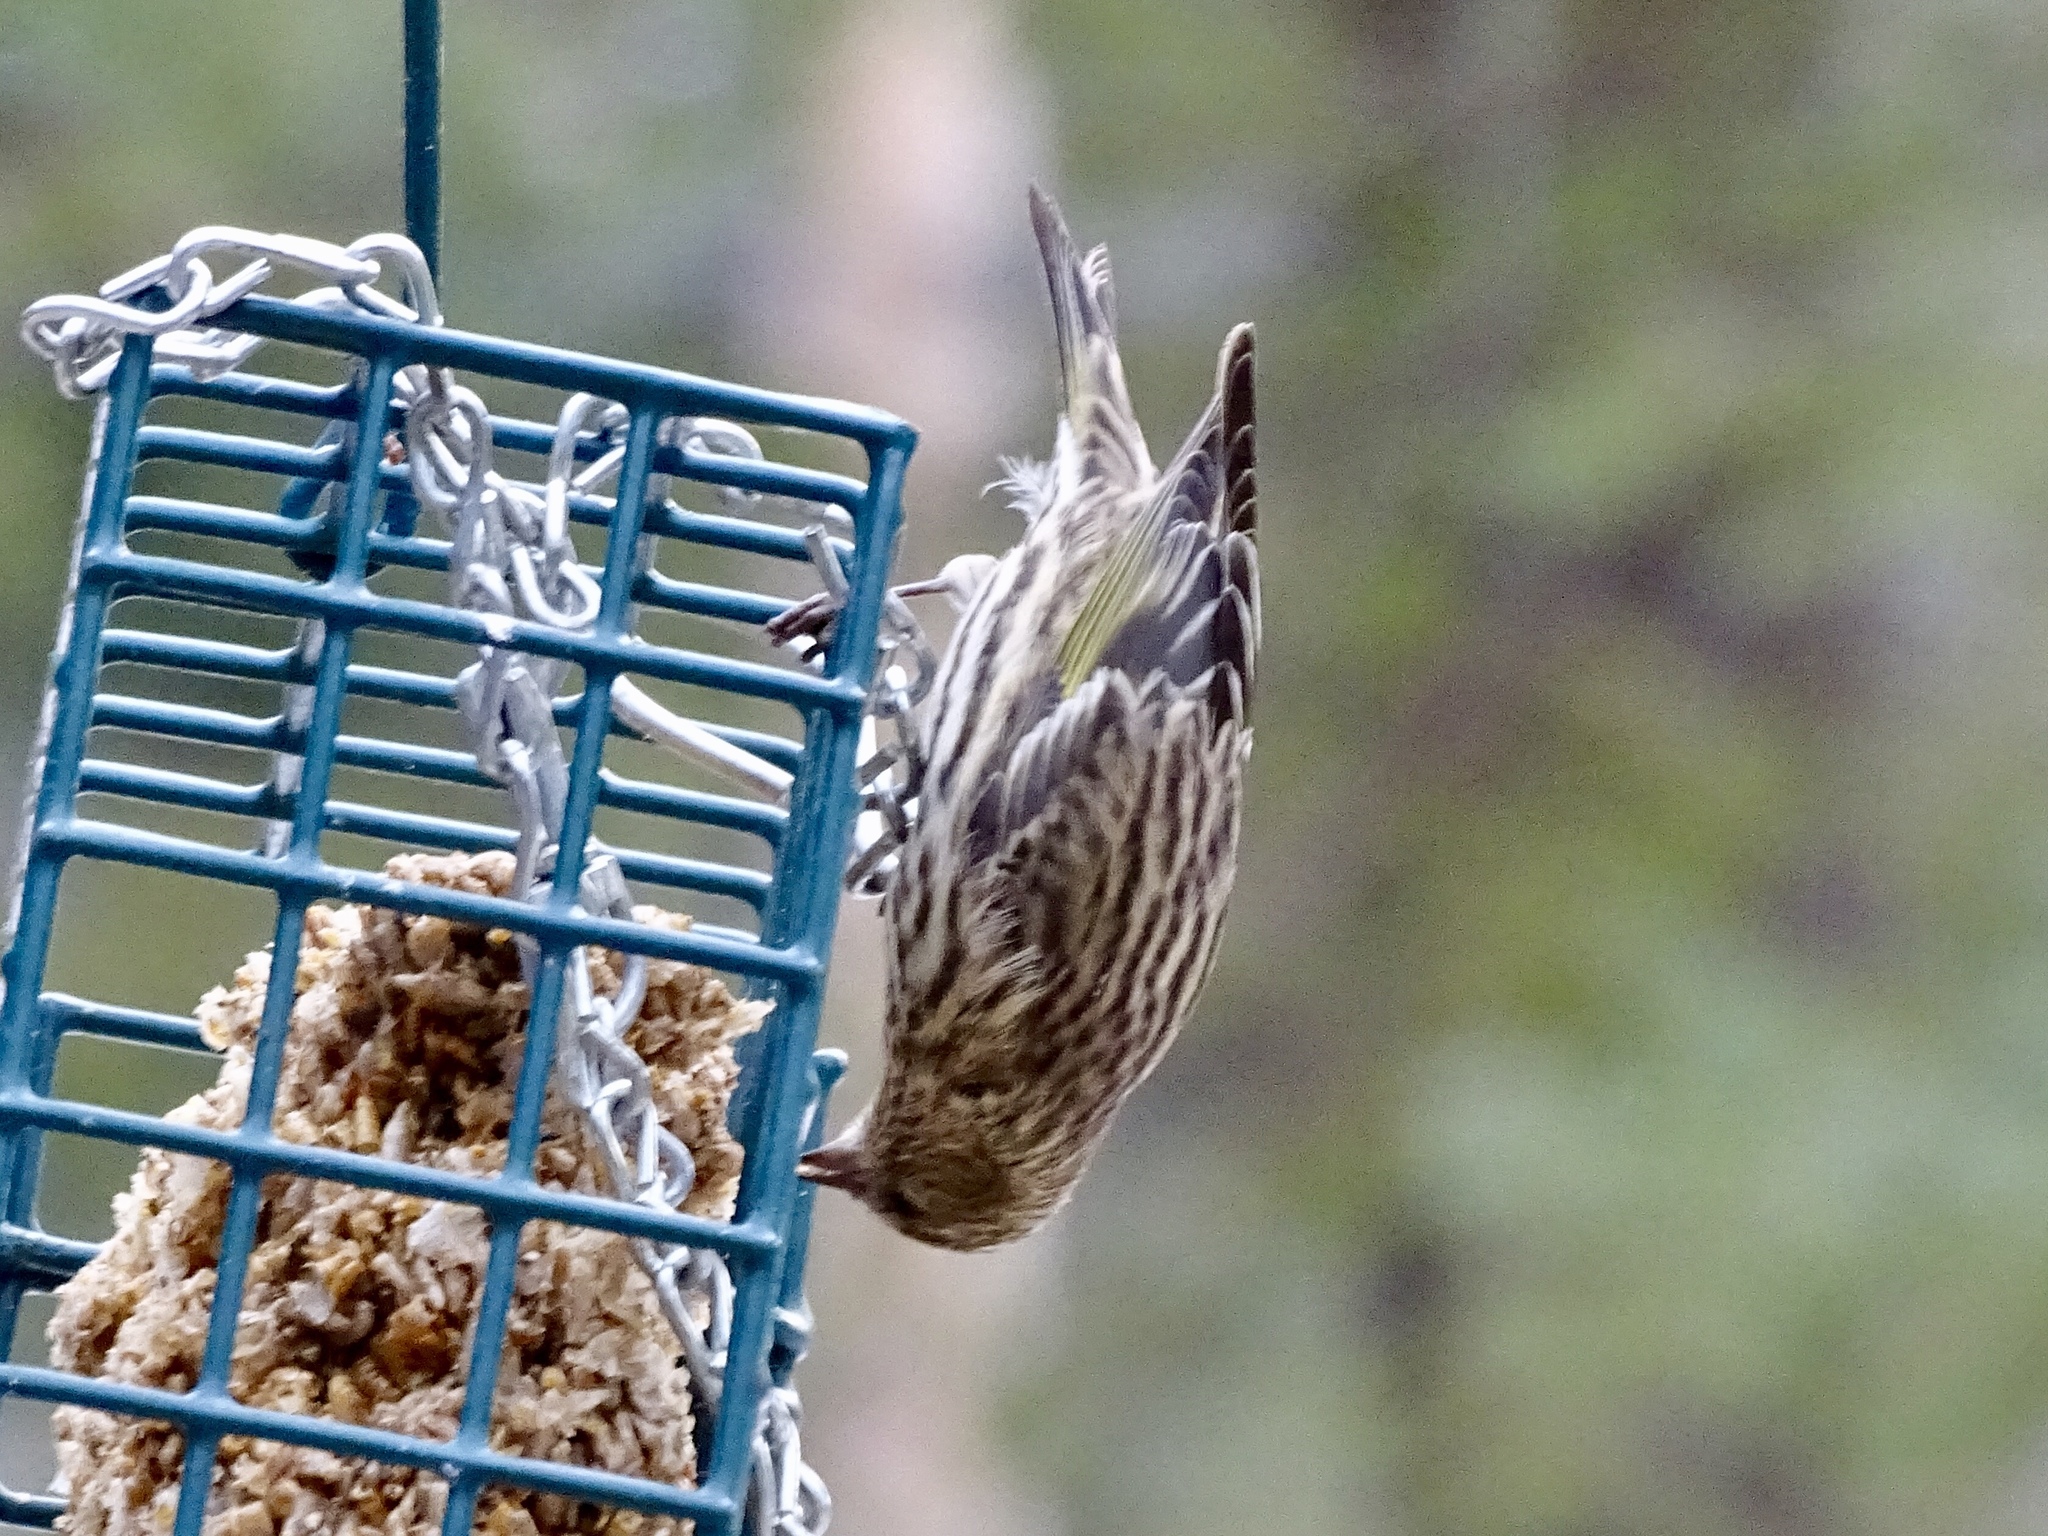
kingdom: Animalia
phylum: Chordata
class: Aves
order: Passeriformes
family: Fringillidae
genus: Spinus
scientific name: Spinus pinus
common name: Pine siskin
